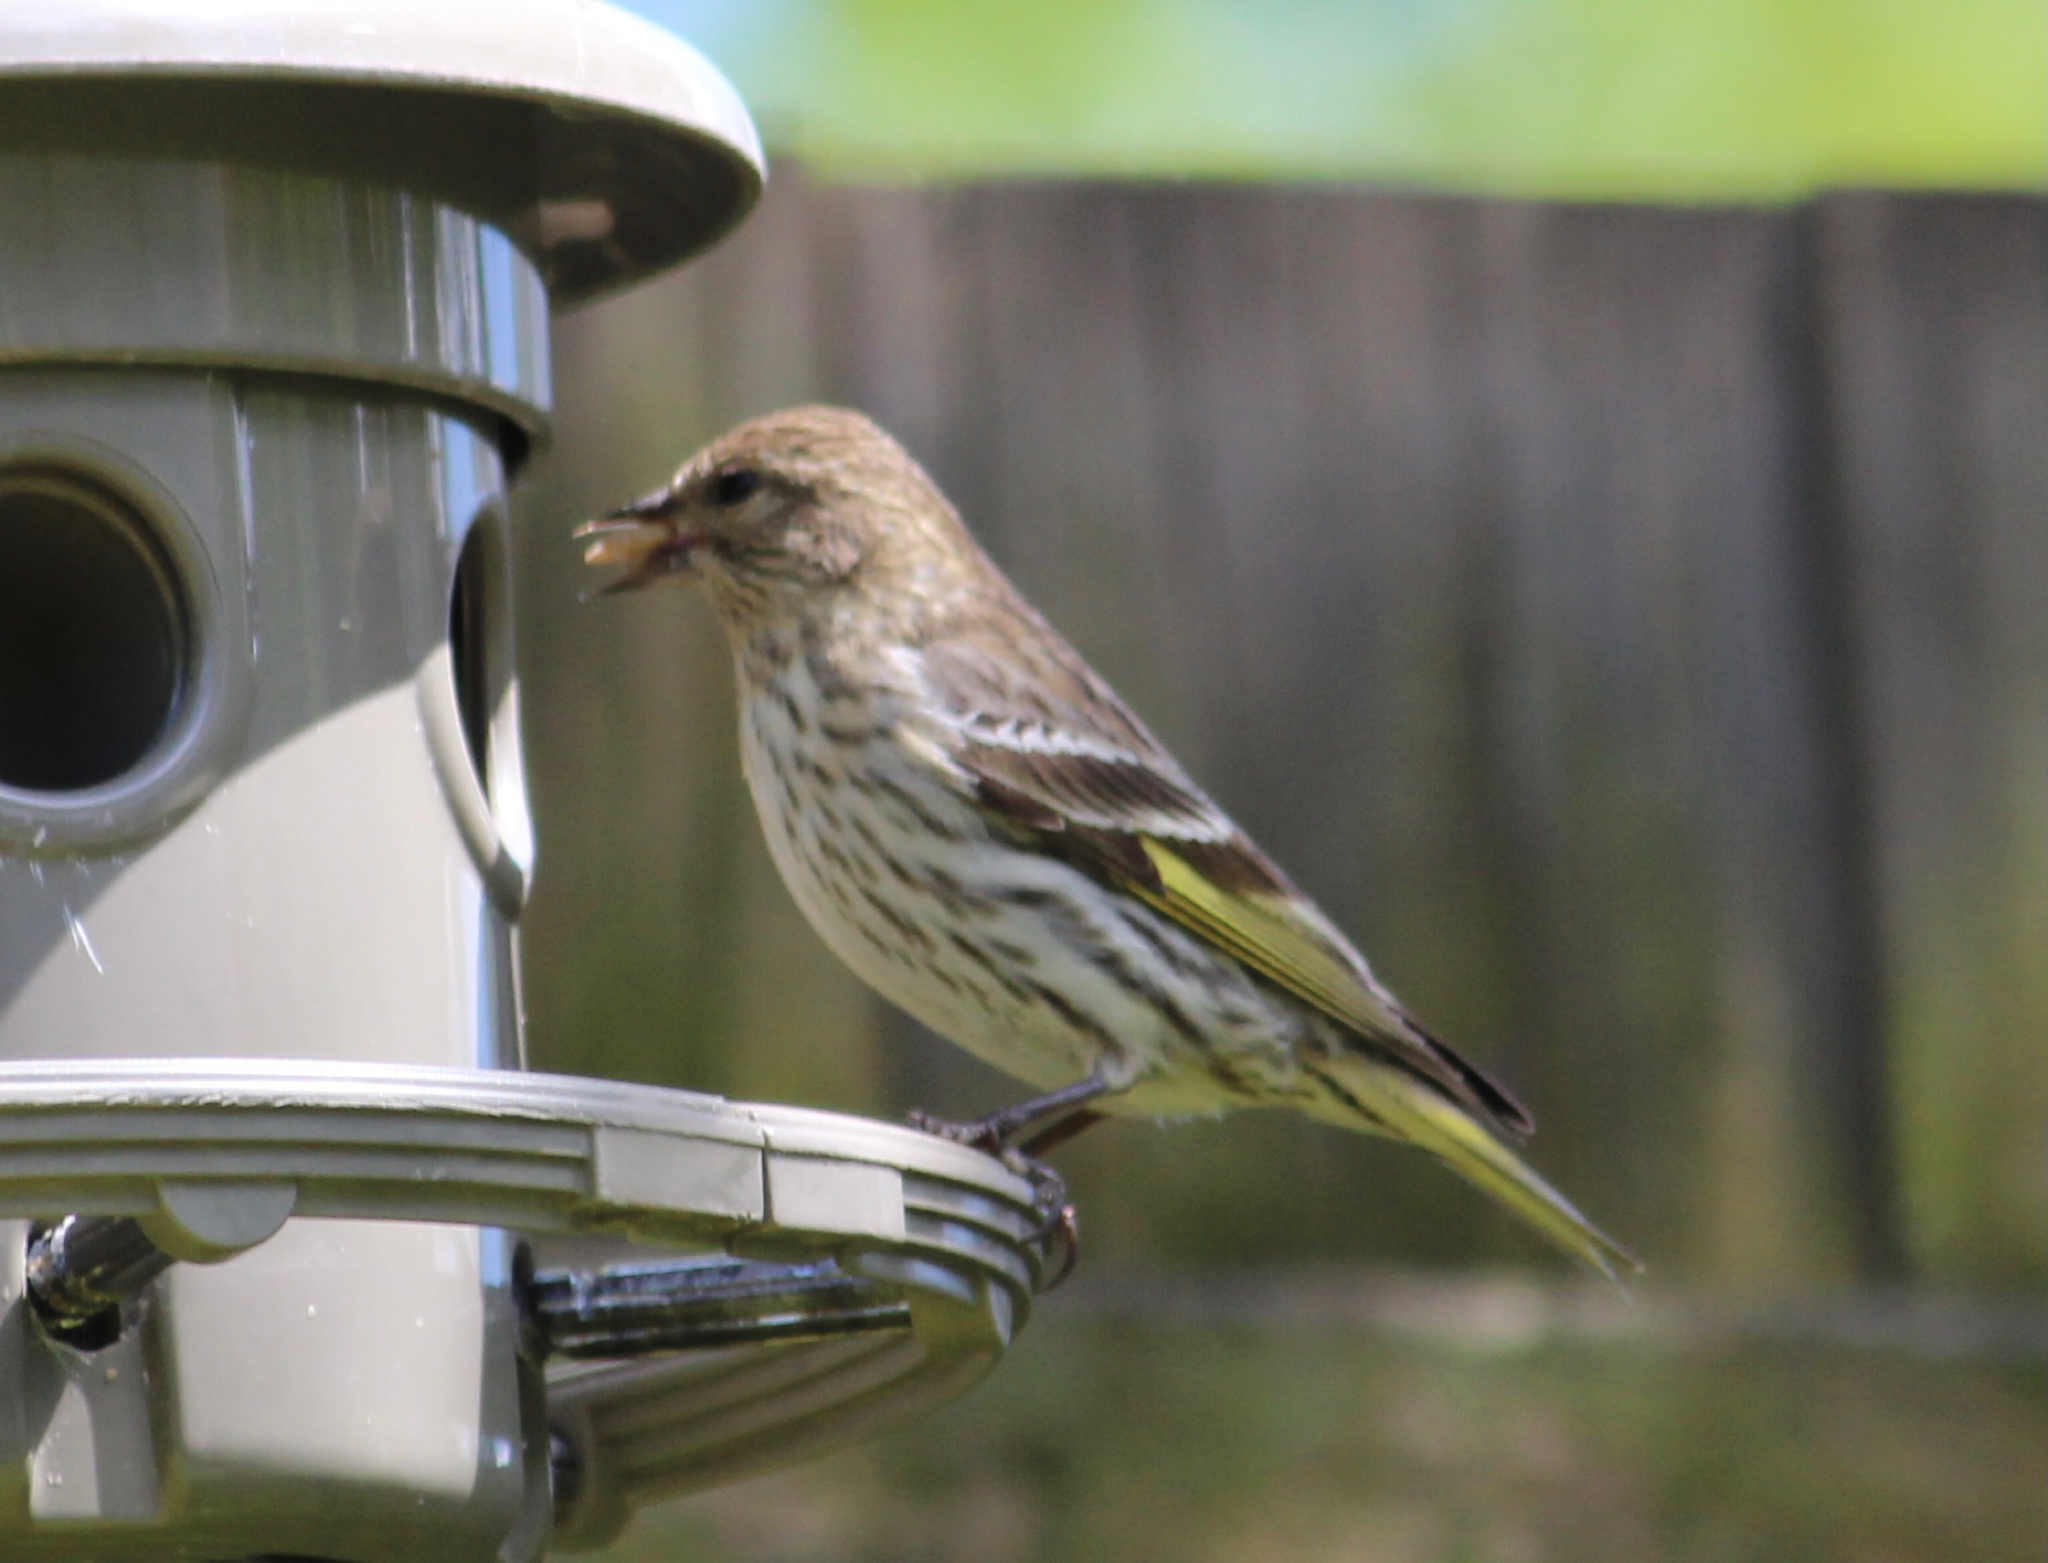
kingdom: Animalia
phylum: Chordata
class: Aves
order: Passeriformes
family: Fringillidae
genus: Spinus
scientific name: Spinus pinus
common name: Pine siskin
